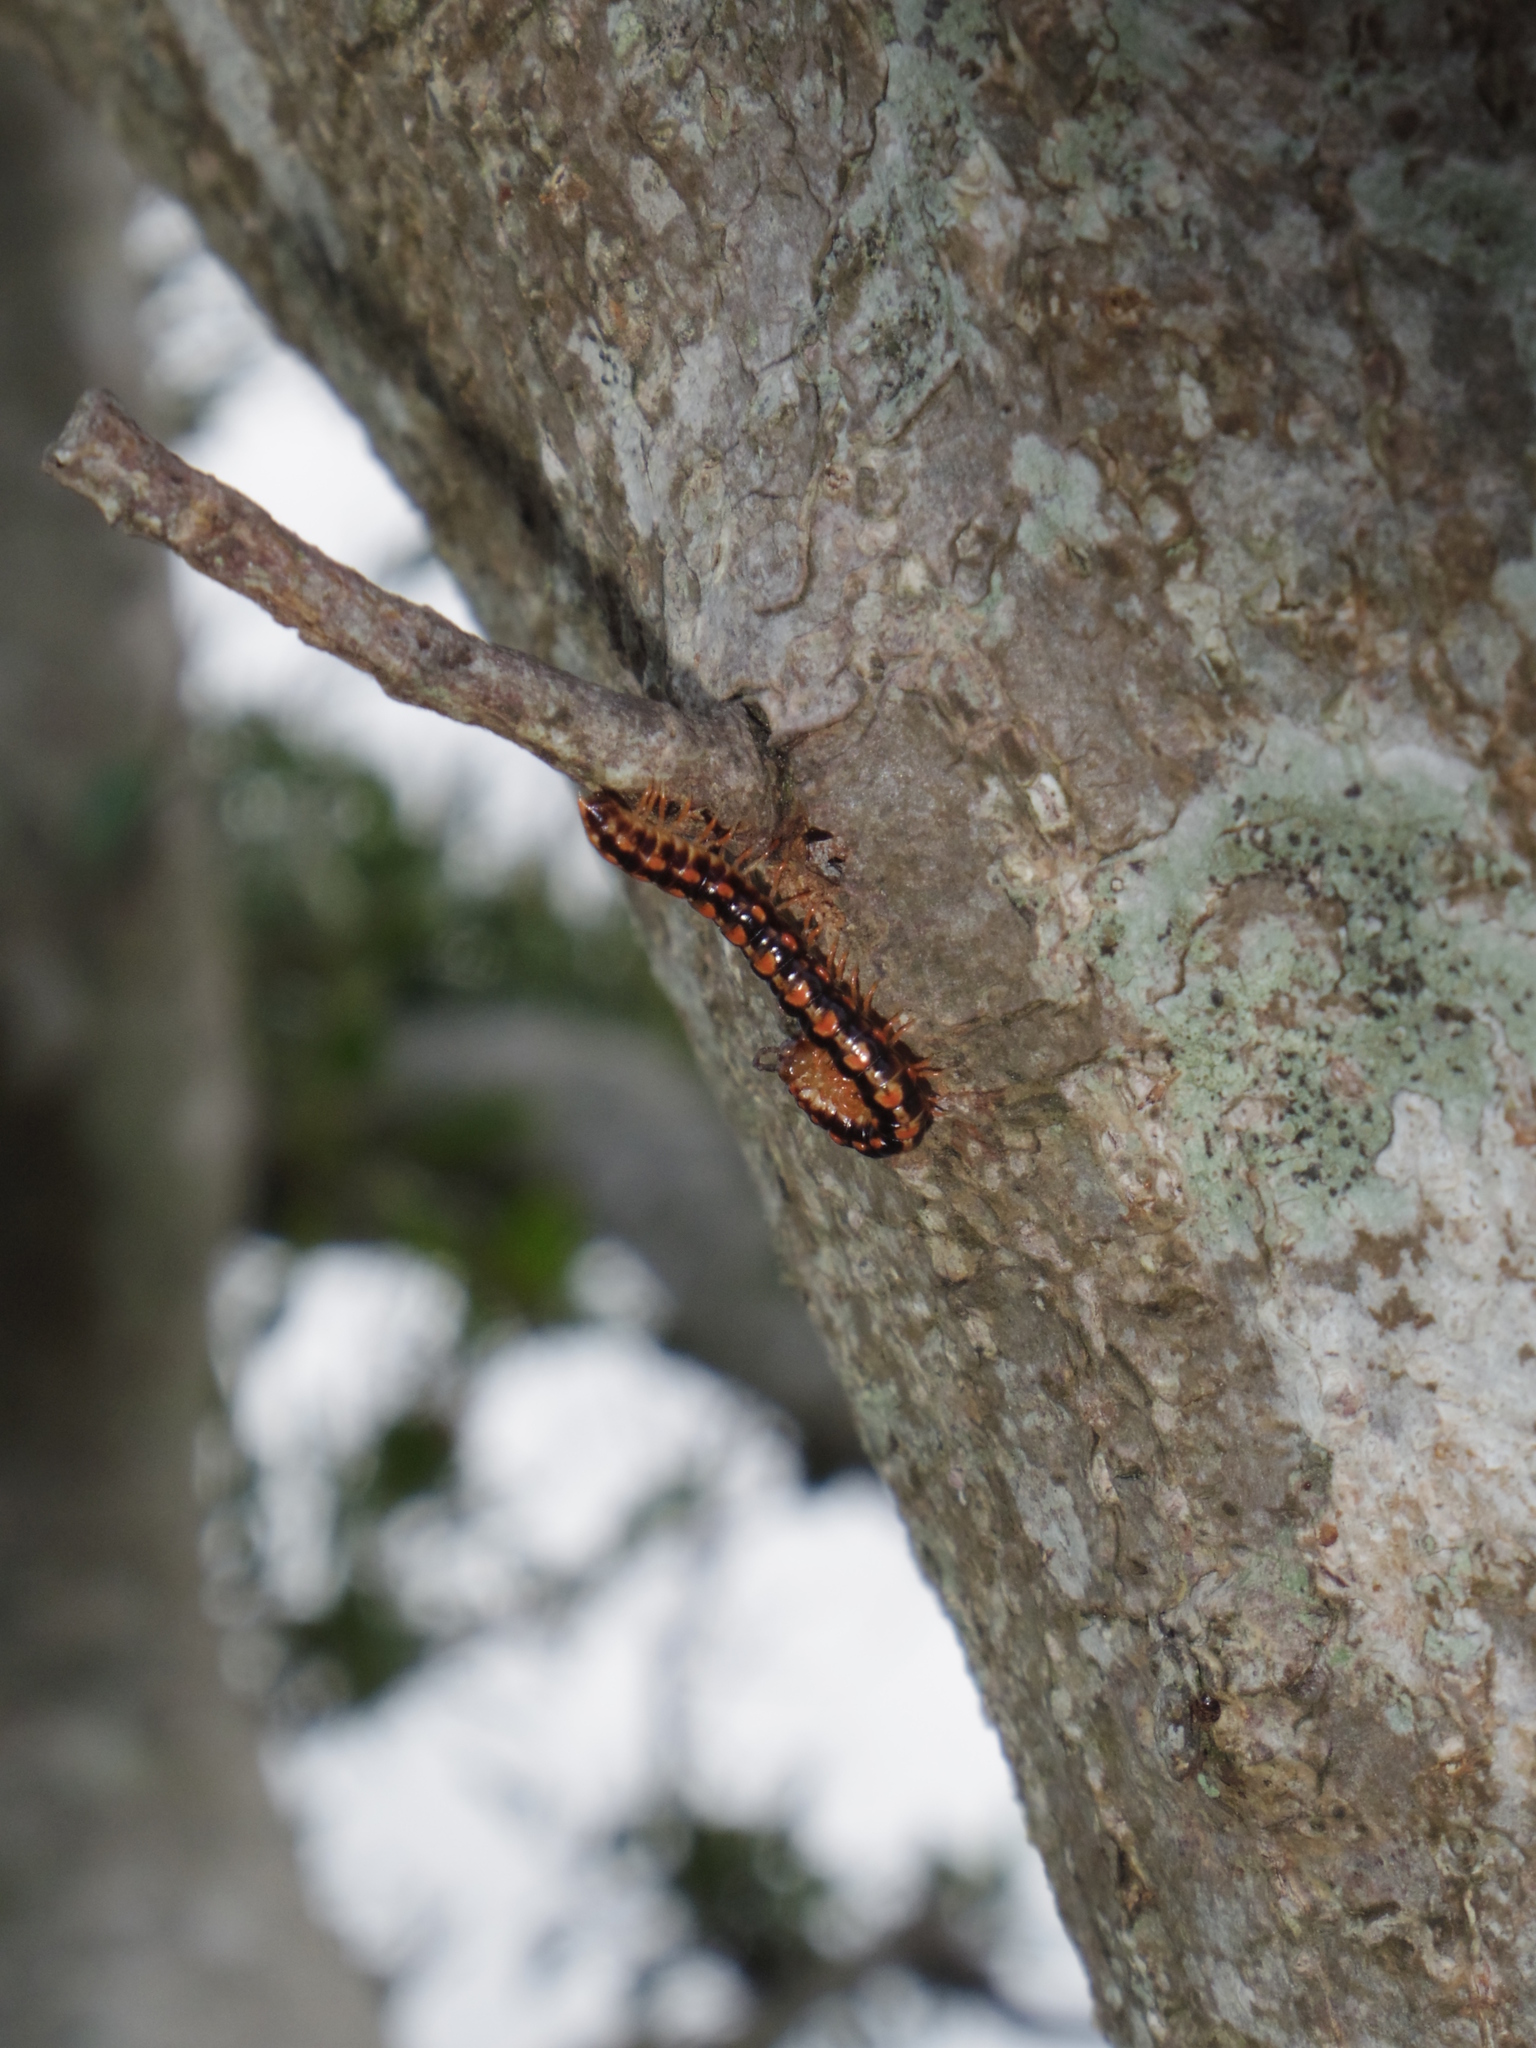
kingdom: Animalia
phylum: Arthropoda
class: Diplopoda
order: Polydesmida
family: Paradoxosomatidae
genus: Helicorthomorpha
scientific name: Helicorthomorpha holstii
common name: Millipede
